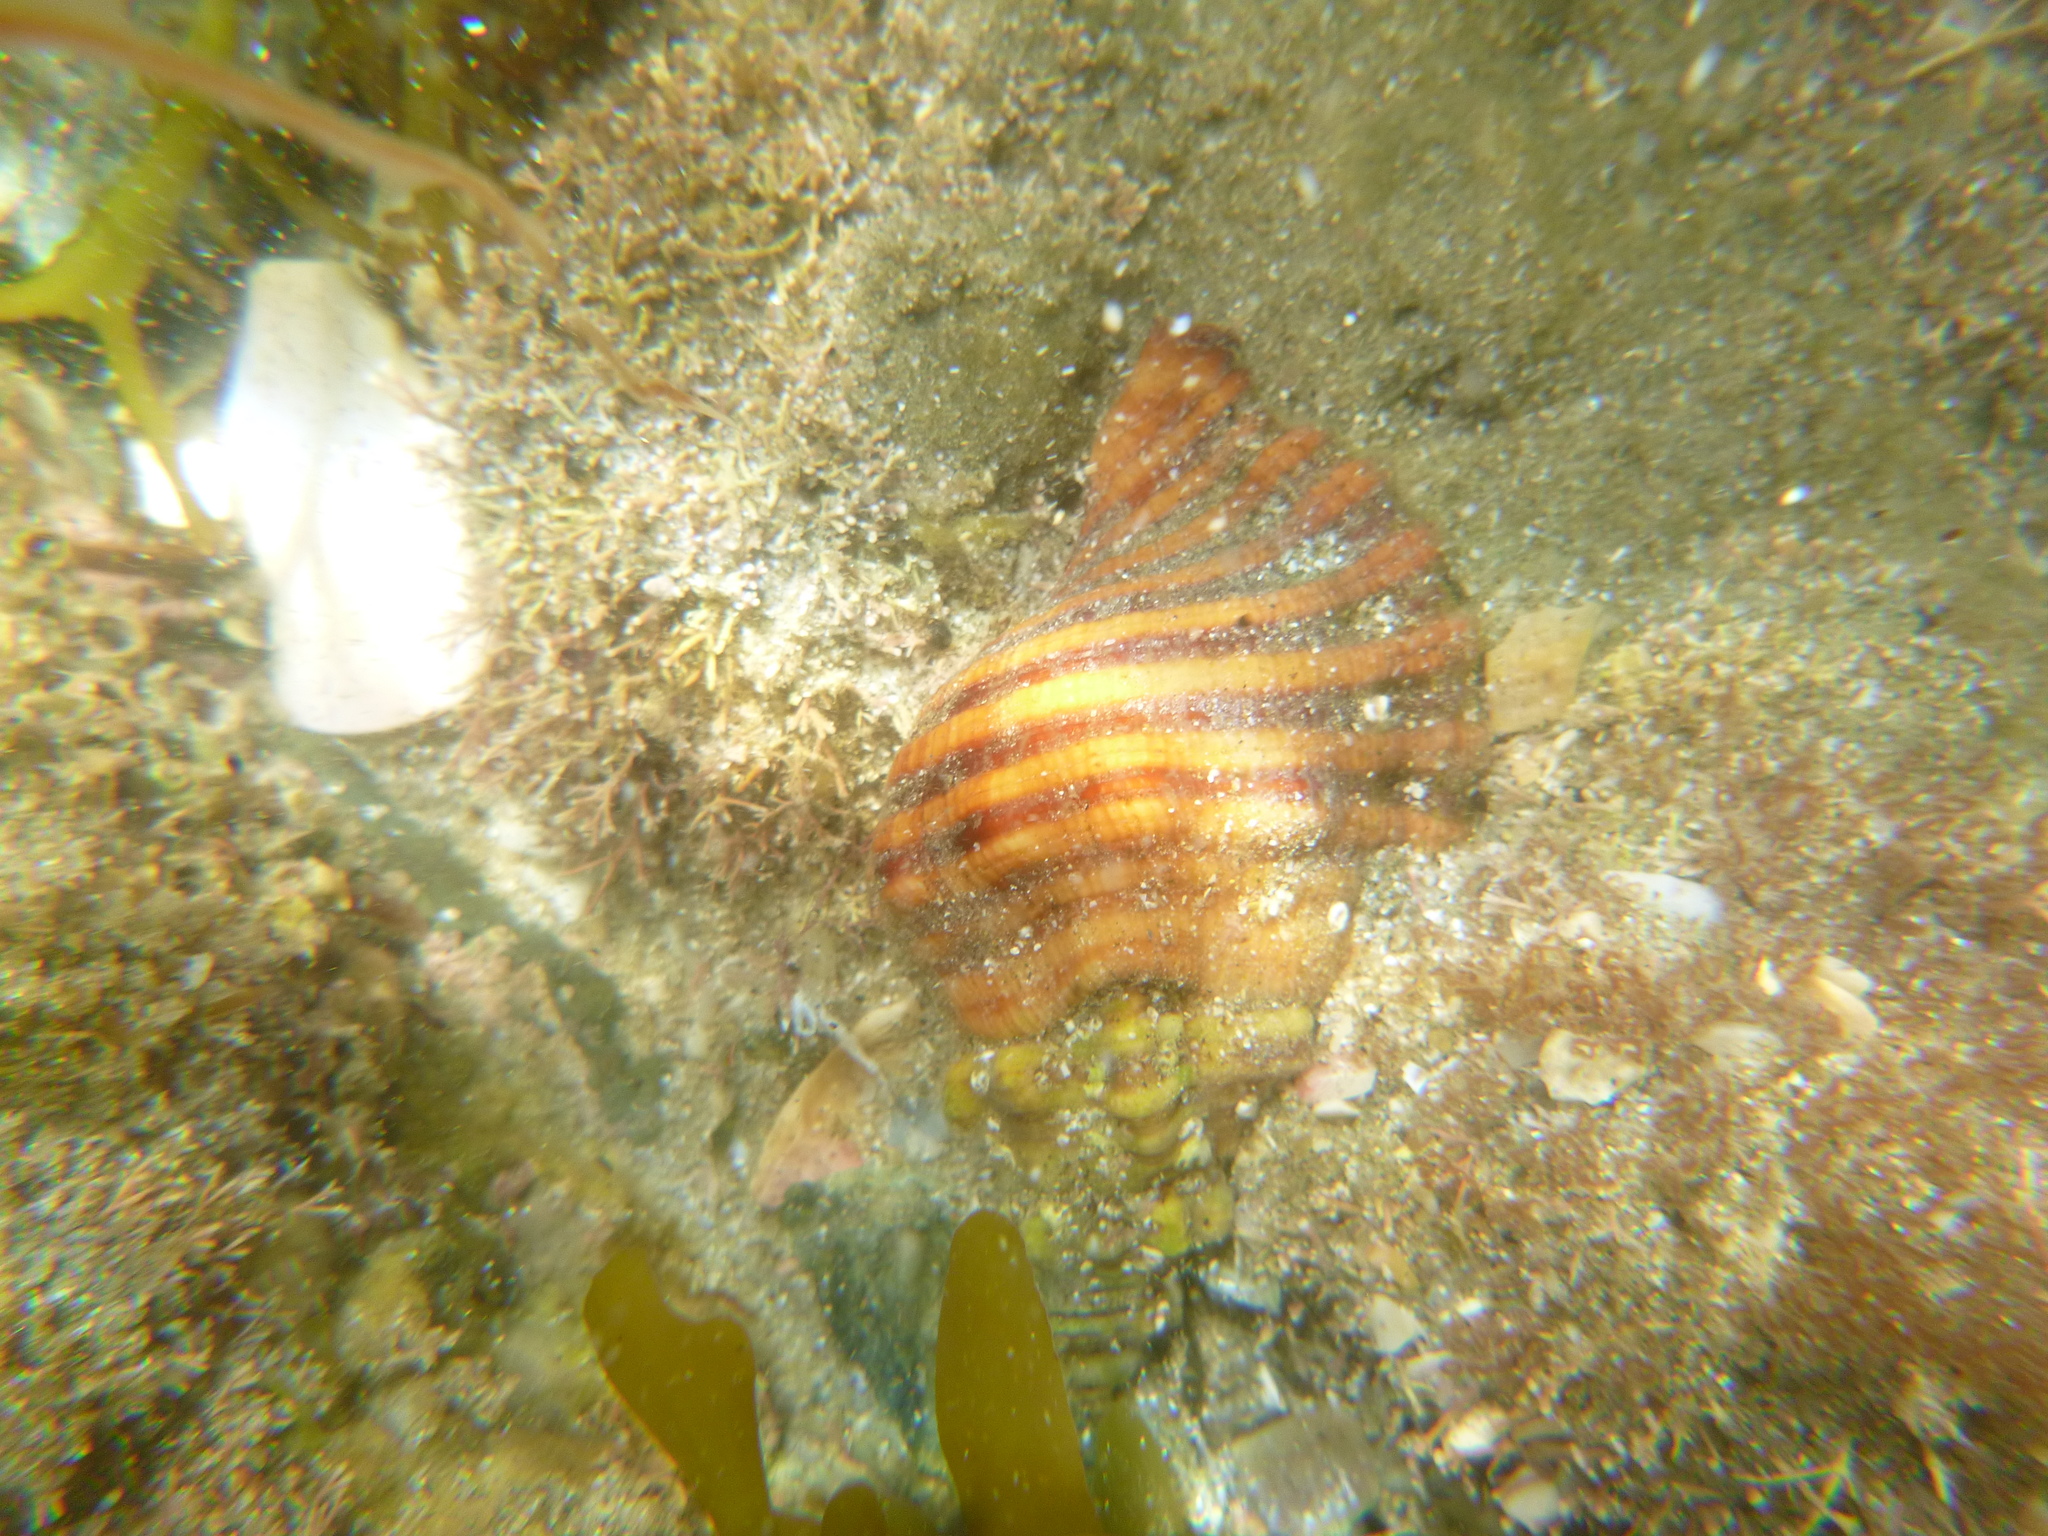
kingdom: Animalia
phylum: Mollusca
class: Gastropoda
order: Littorinimorpha
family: Cymatiidae
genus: Cabestana
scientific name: Cabestana spengleri
